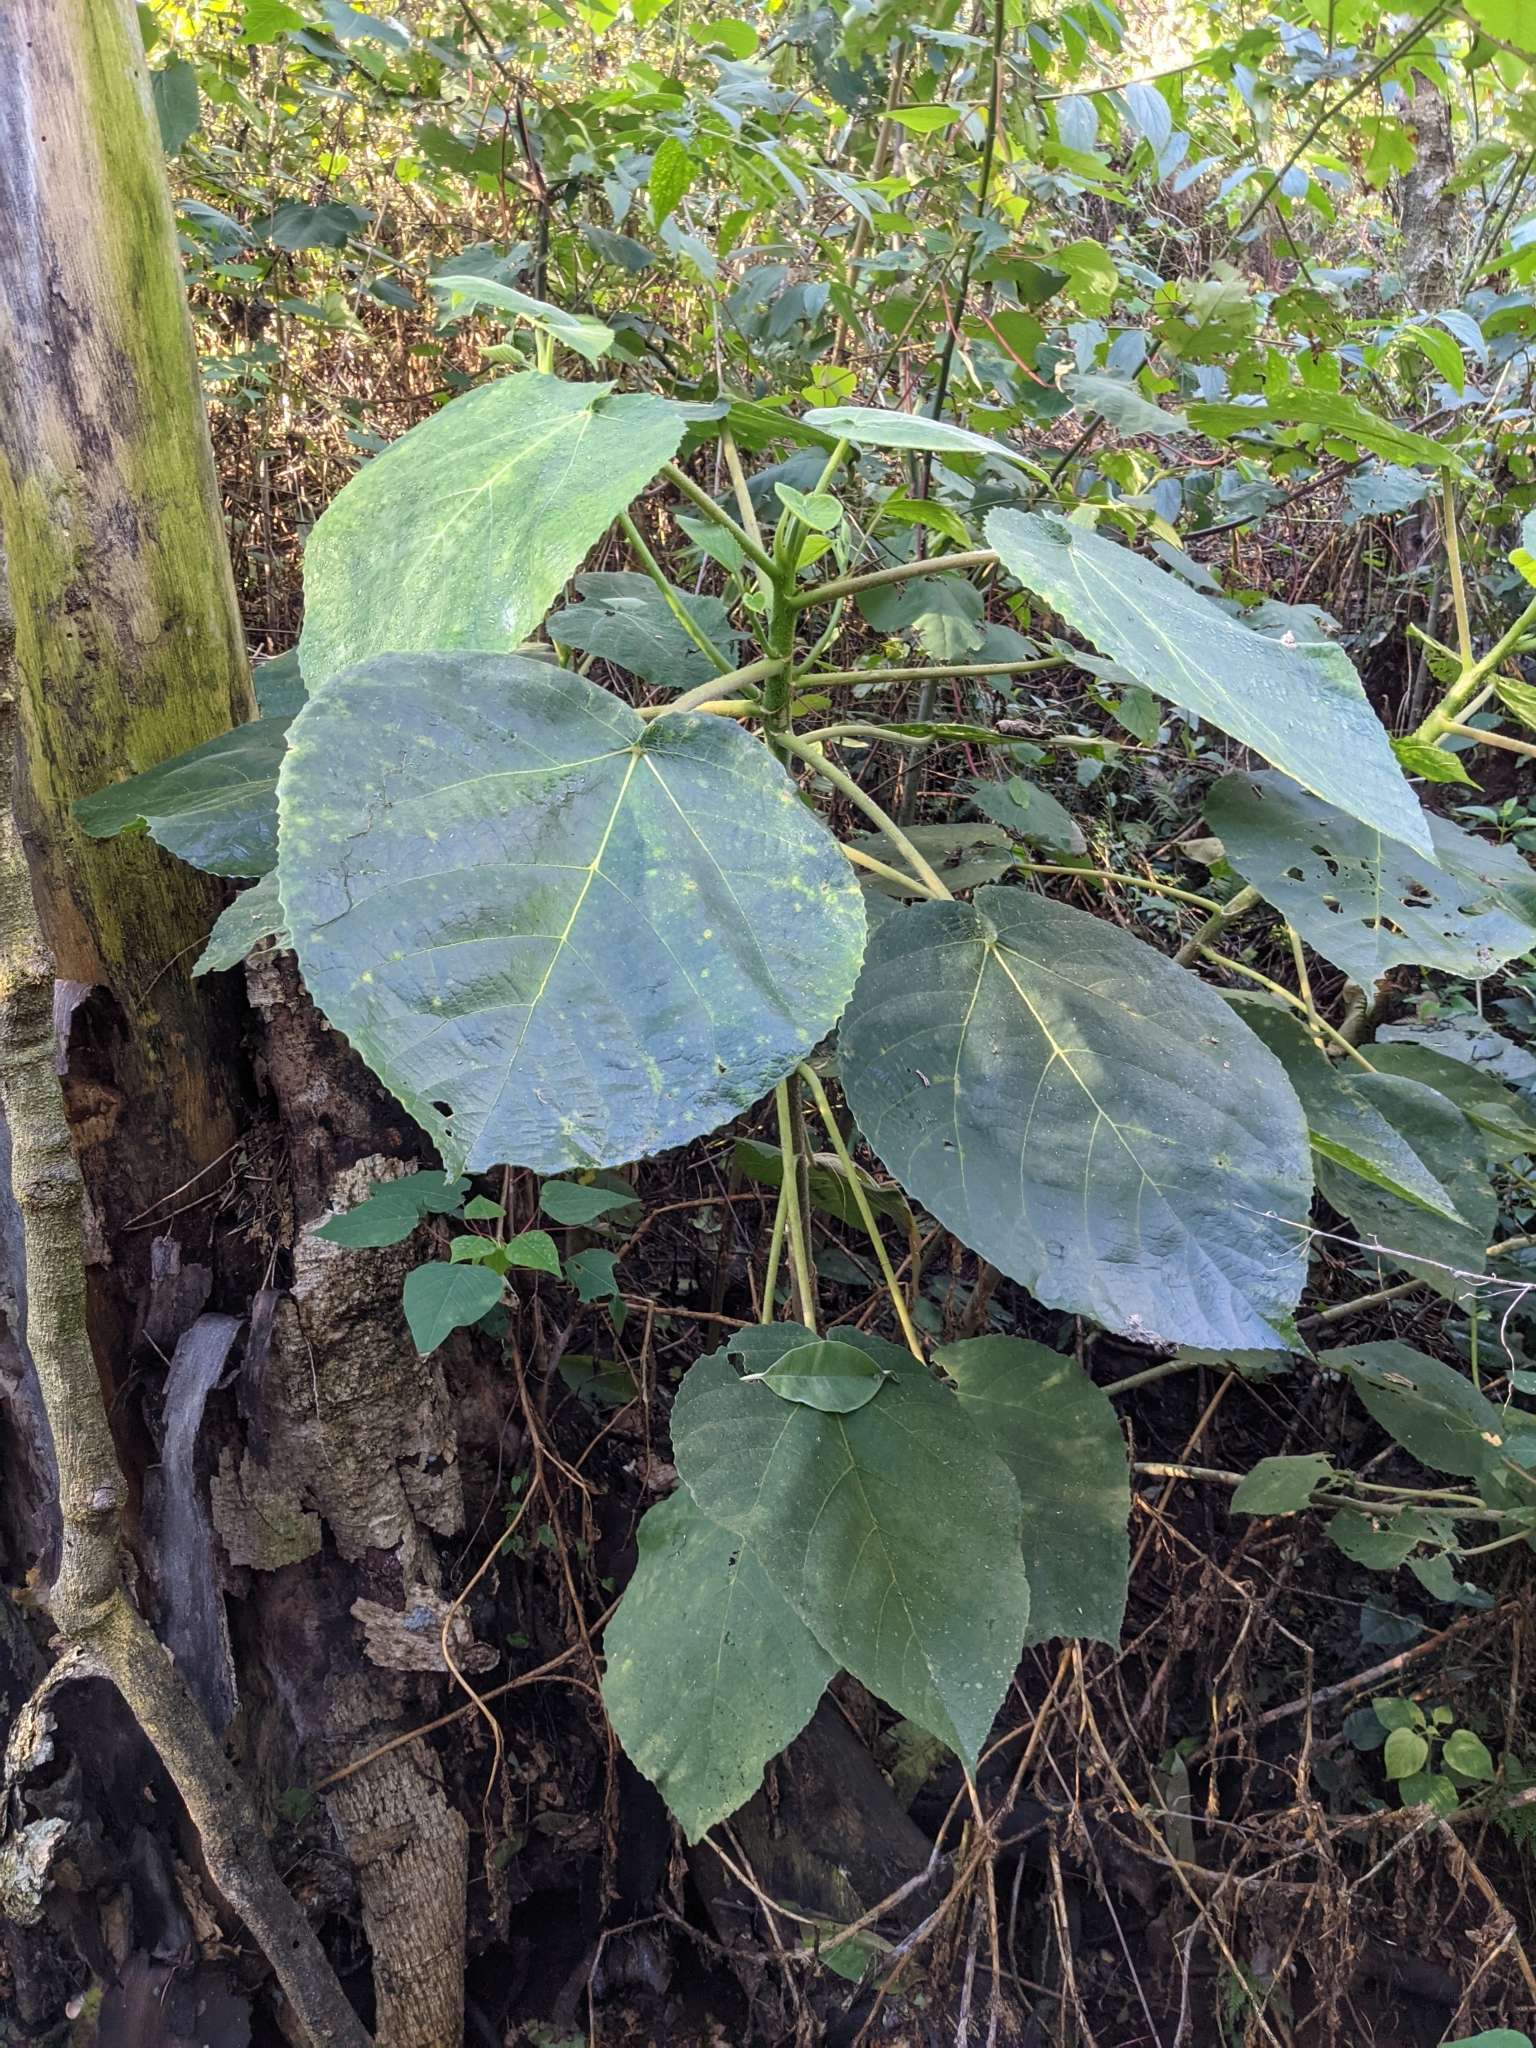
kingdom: Plantae
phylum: Tracheophyta
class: Magnoliopsida
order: Rosales
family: Urticaceae
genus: Dendrocnide
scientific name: Dendrocnide excelsa
